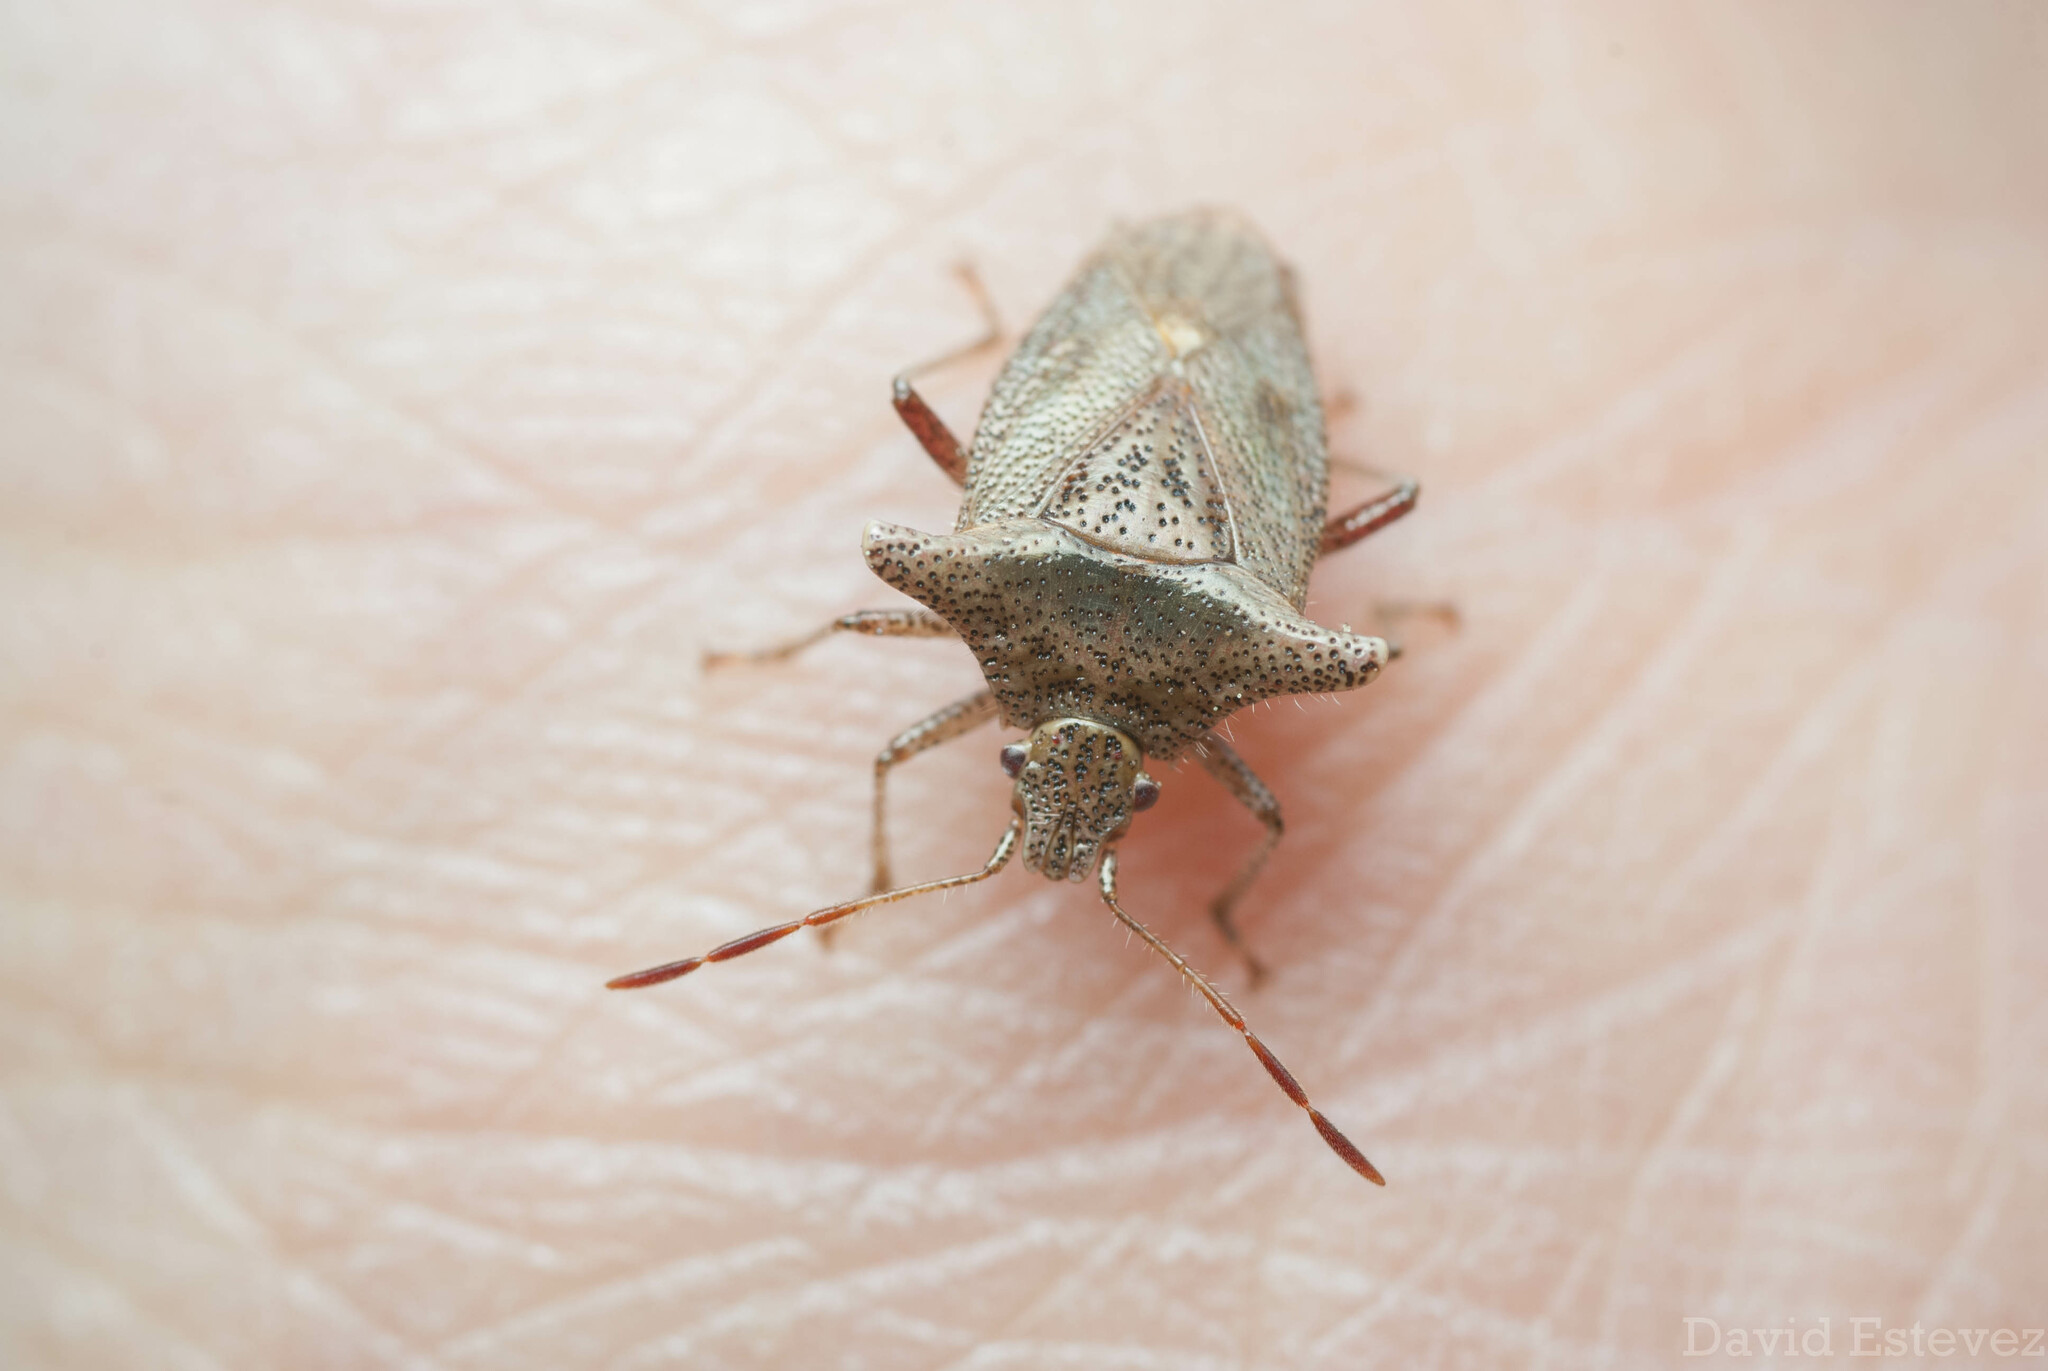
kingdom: Animalia
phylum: Arthropoda
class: Insecta
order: Hemiptera
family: Acanthosomatidae
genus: Bebaeus
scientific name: Bebaeus punctipes
